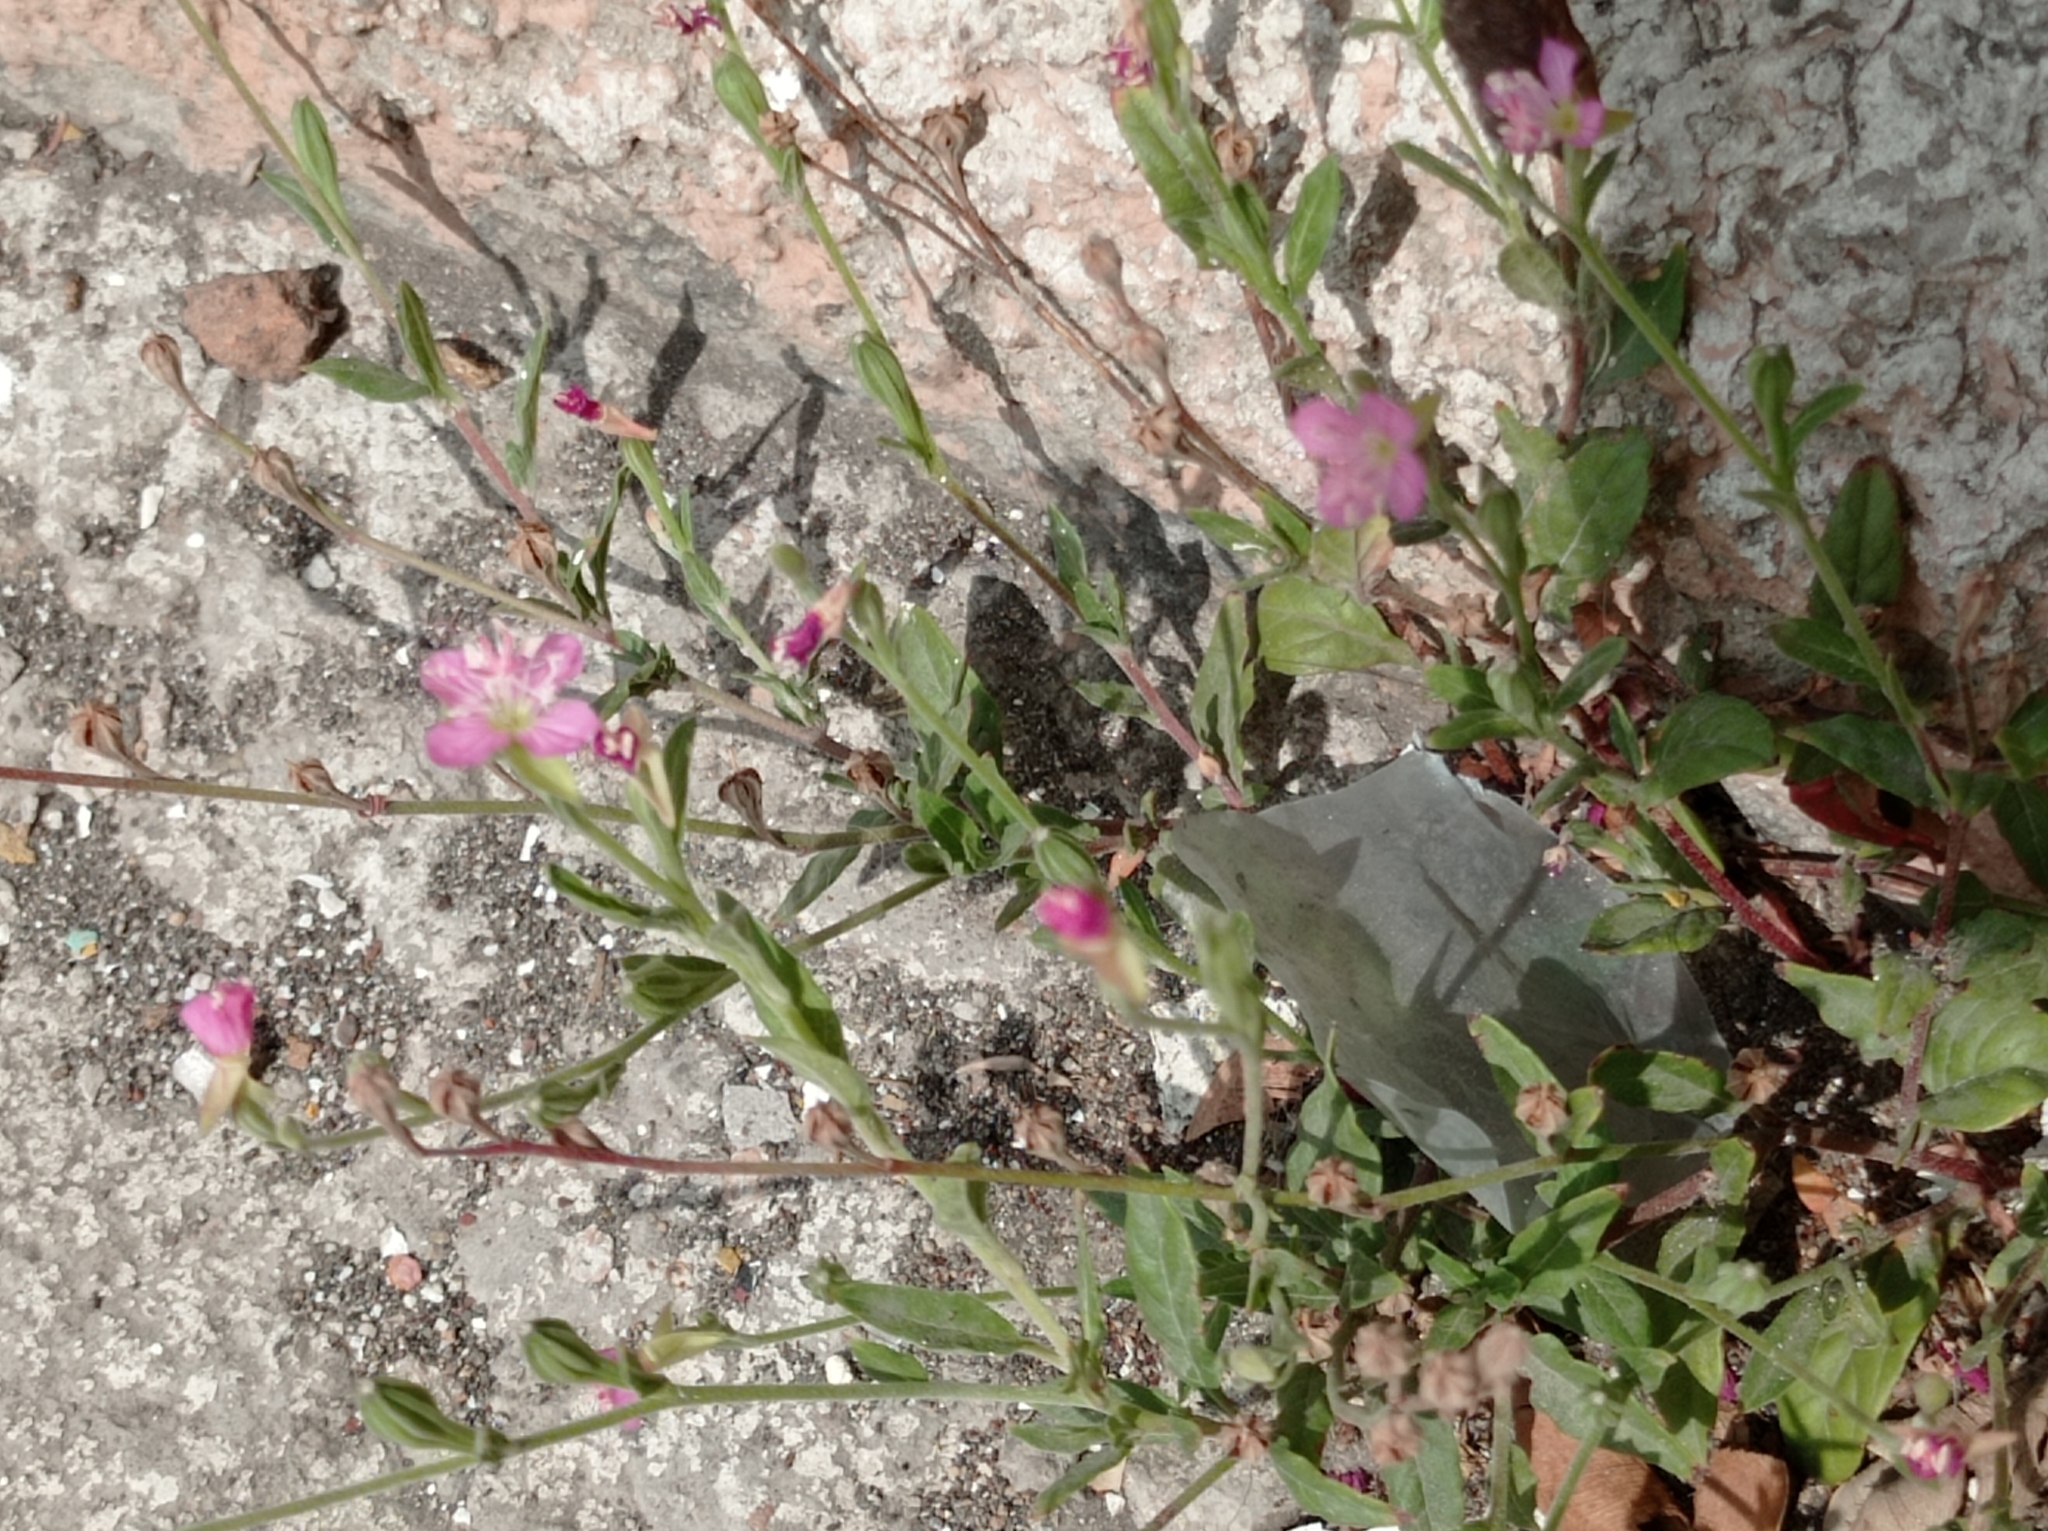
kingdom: Plantae
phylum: Tracheophyta
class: Magnoliopsida
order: Myrtales
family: Onagraceae
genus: Oenothera
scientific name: Oenothera rosea
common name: Rosy evening-primrose
